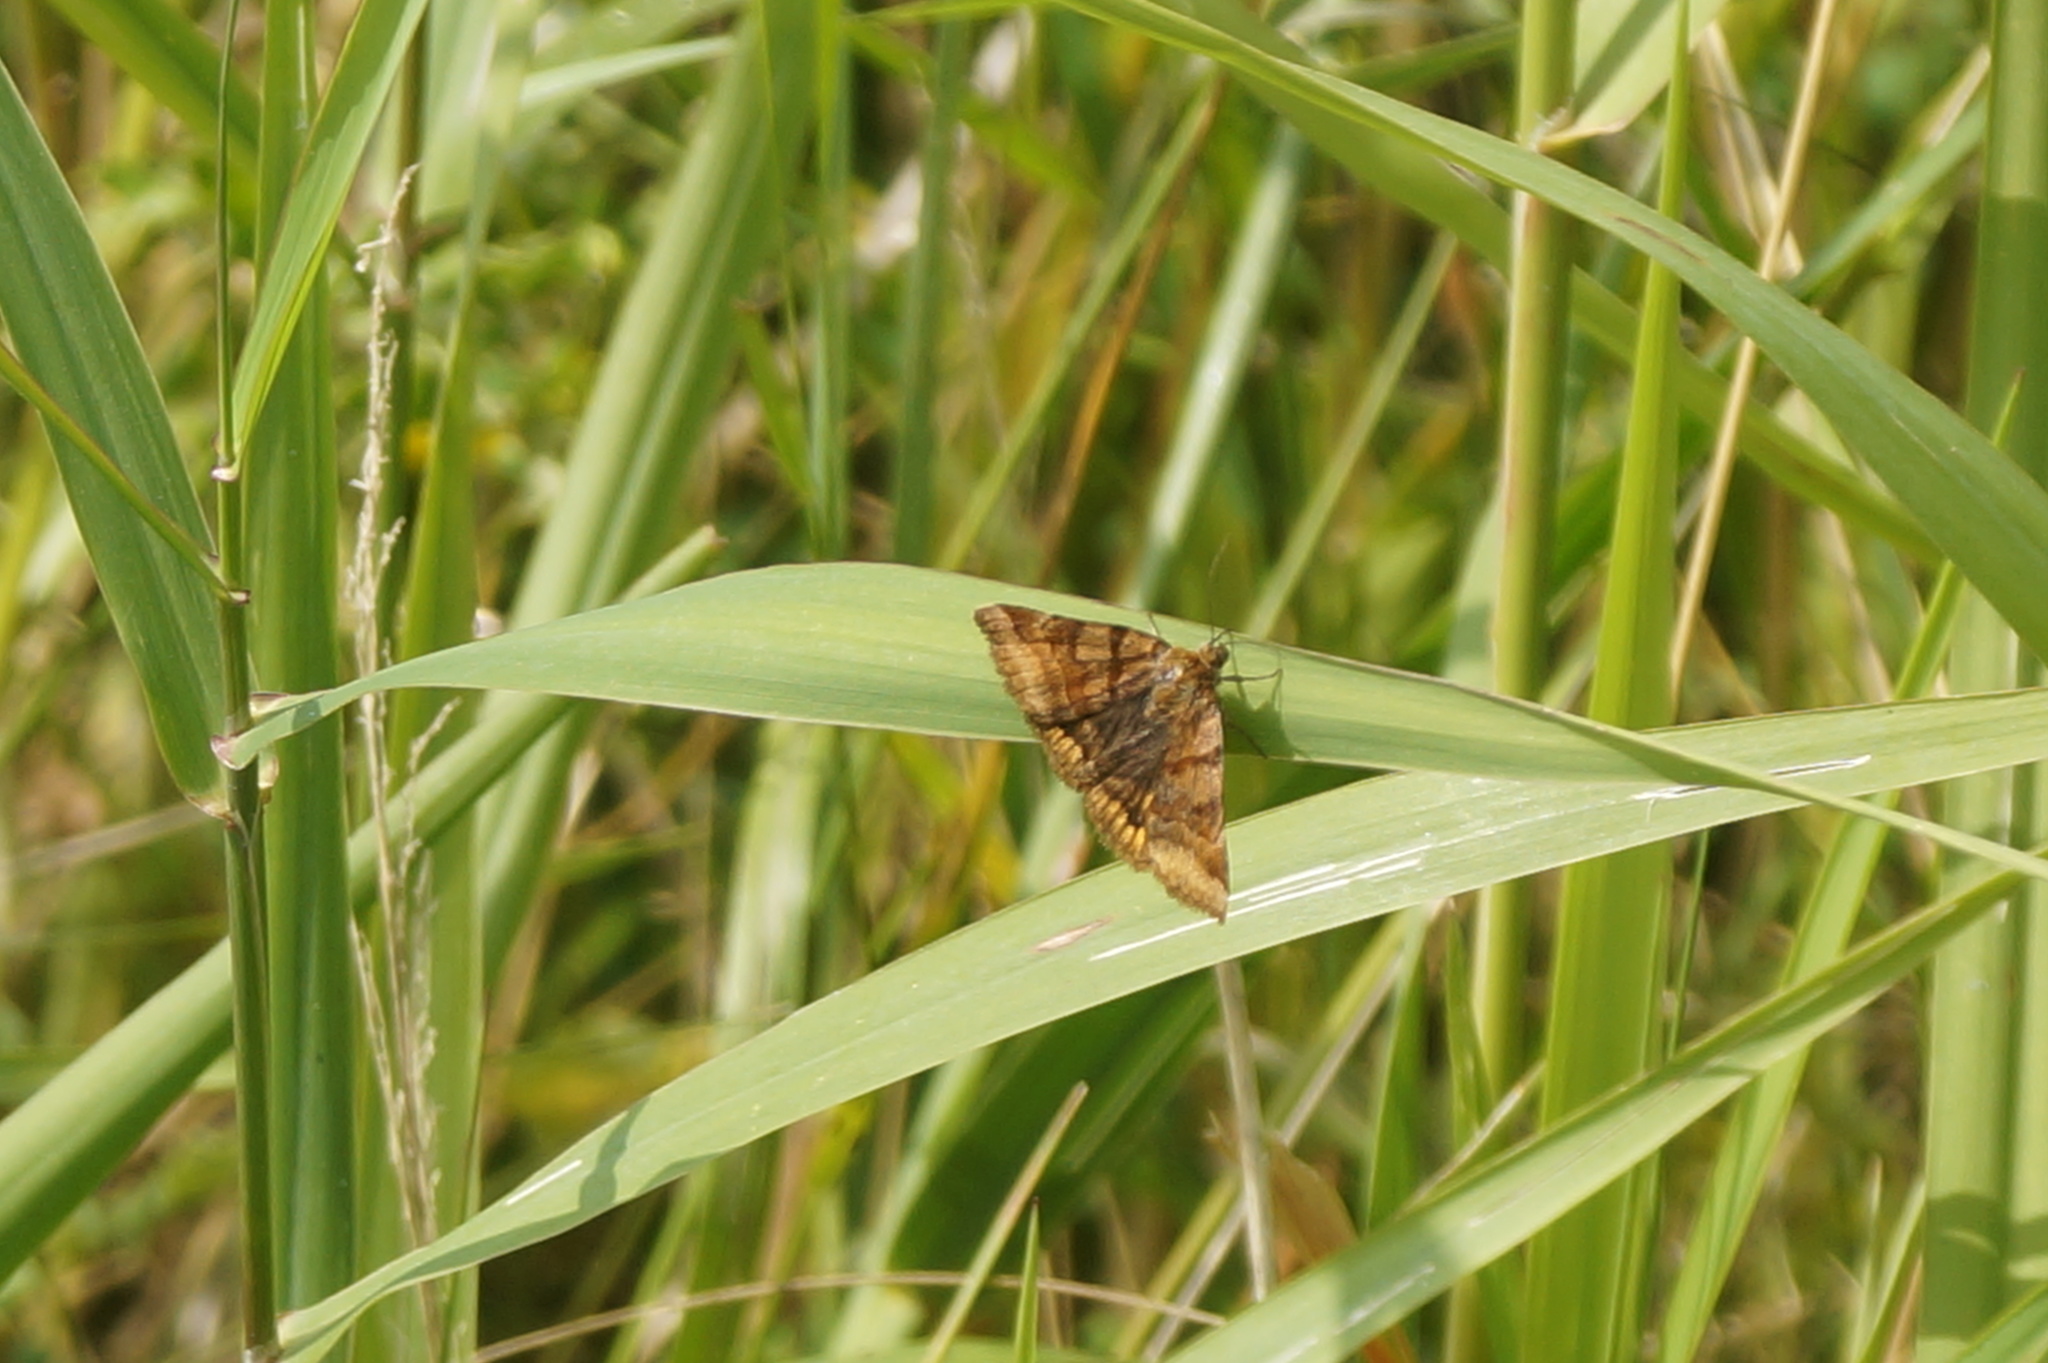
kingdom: Animalia
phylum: Arthropoda
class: Insecta
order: Lepidoptera
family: Erebidae
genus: Euclidia
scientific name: Euclidia glyphica
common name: Burnet companion
